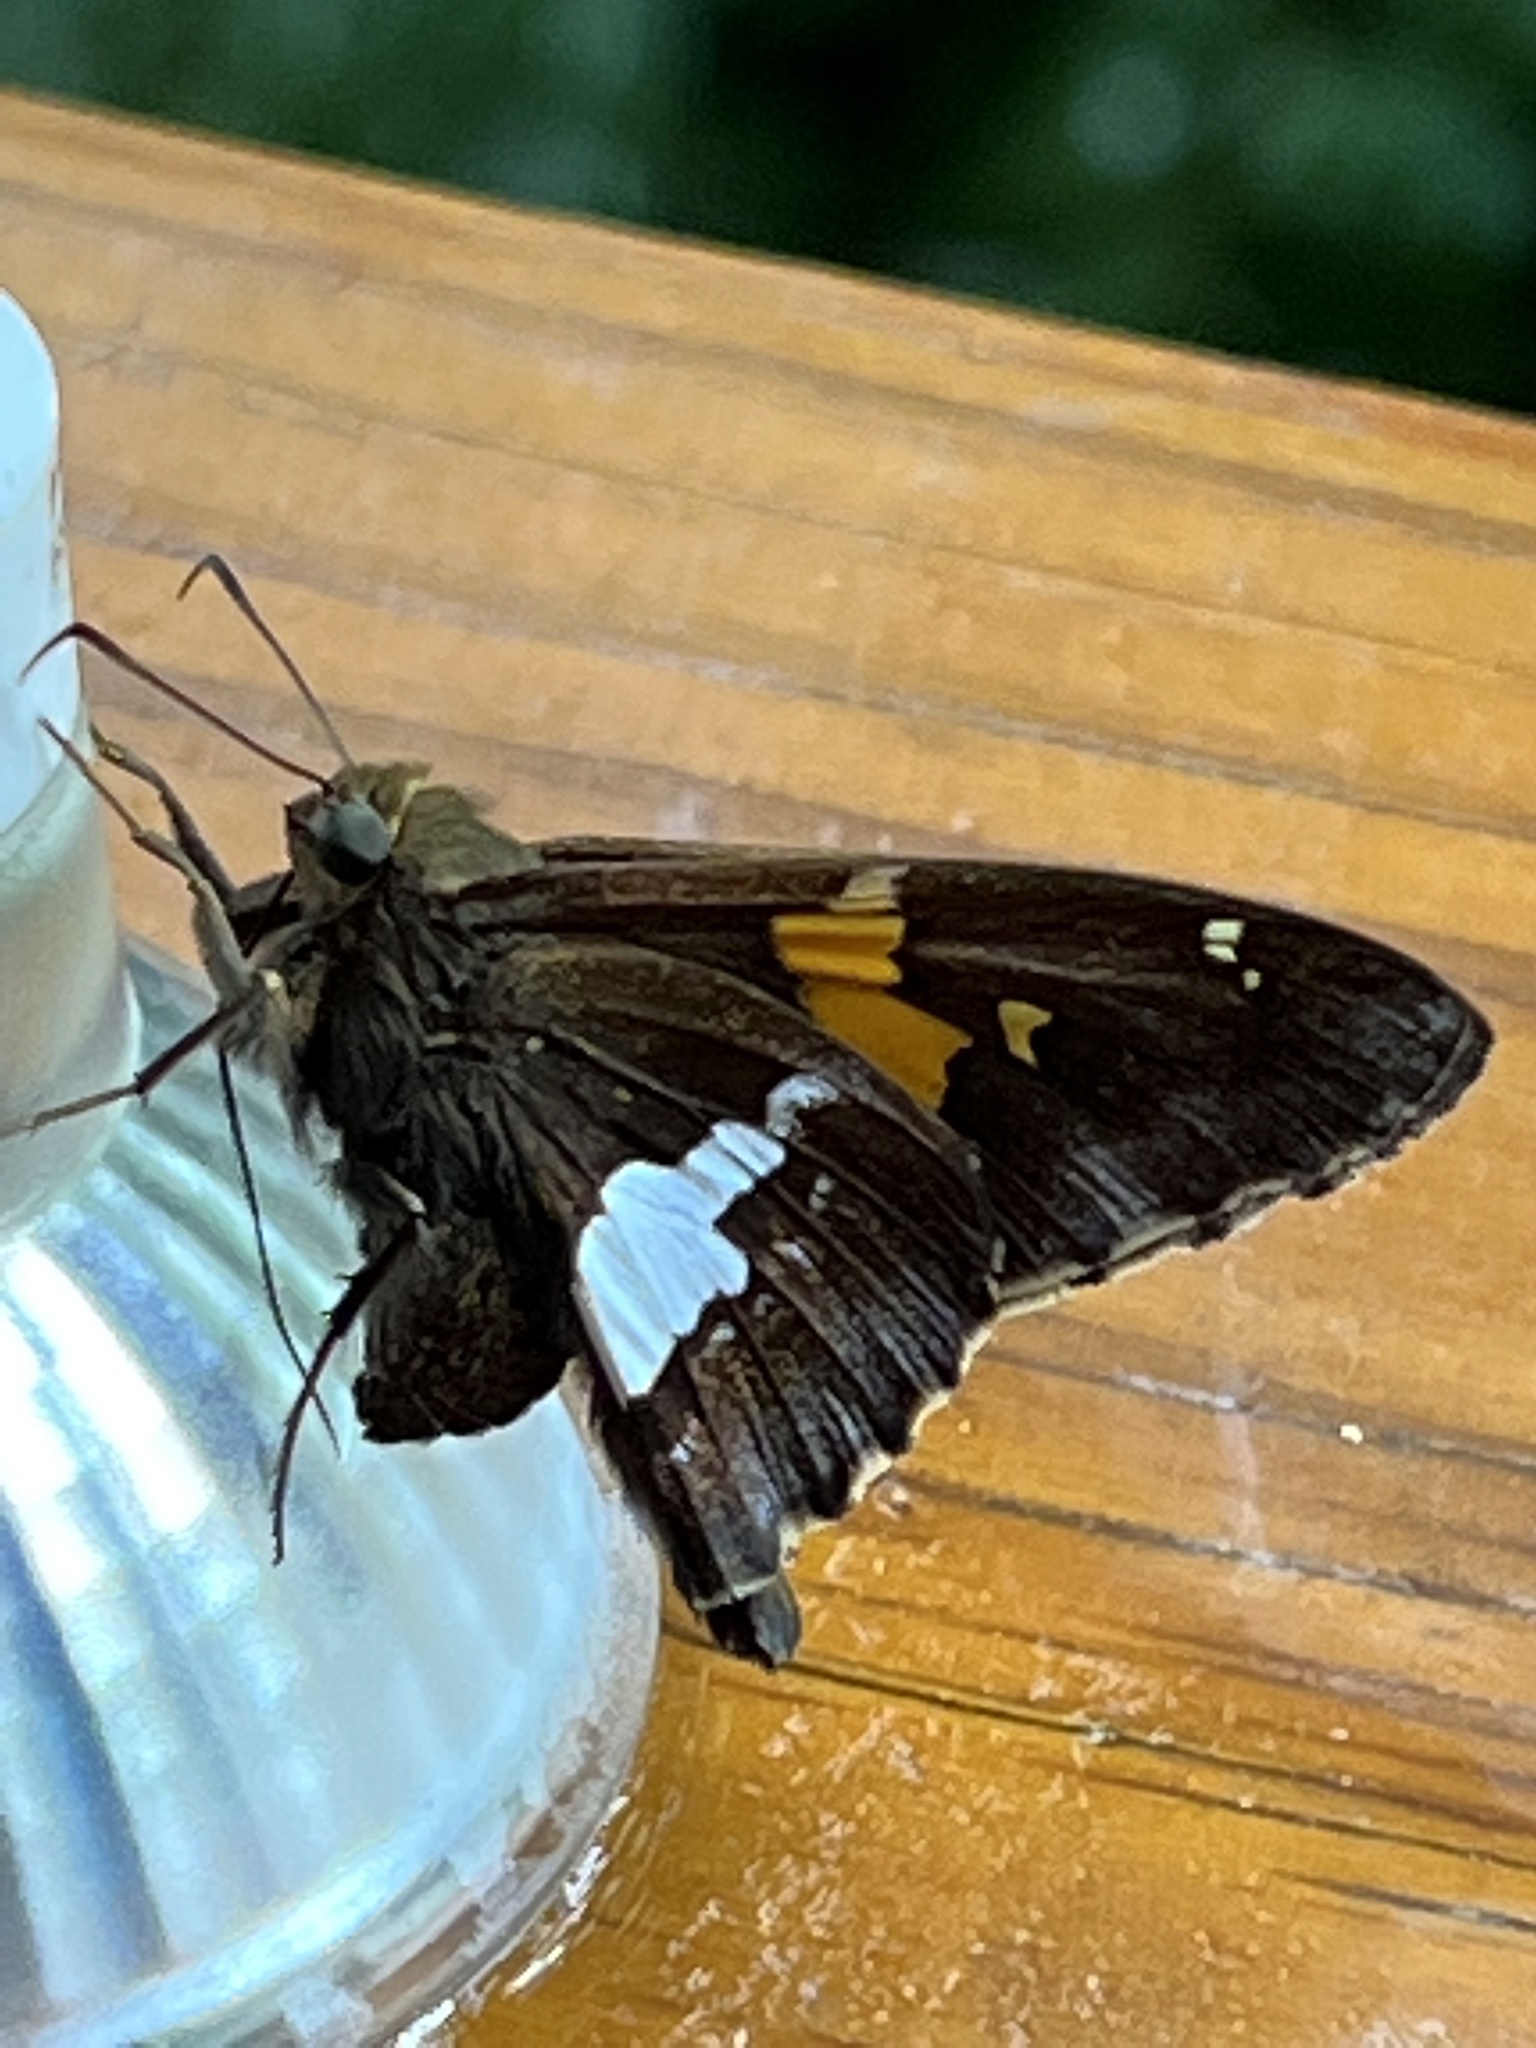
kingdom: Animalia
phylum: Arthropoda
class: Insecta
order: Lepidoptera
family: Hesperiidae
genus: Epargyreus
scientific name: Epargyreus clarus
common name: Silver-spotted skipper
